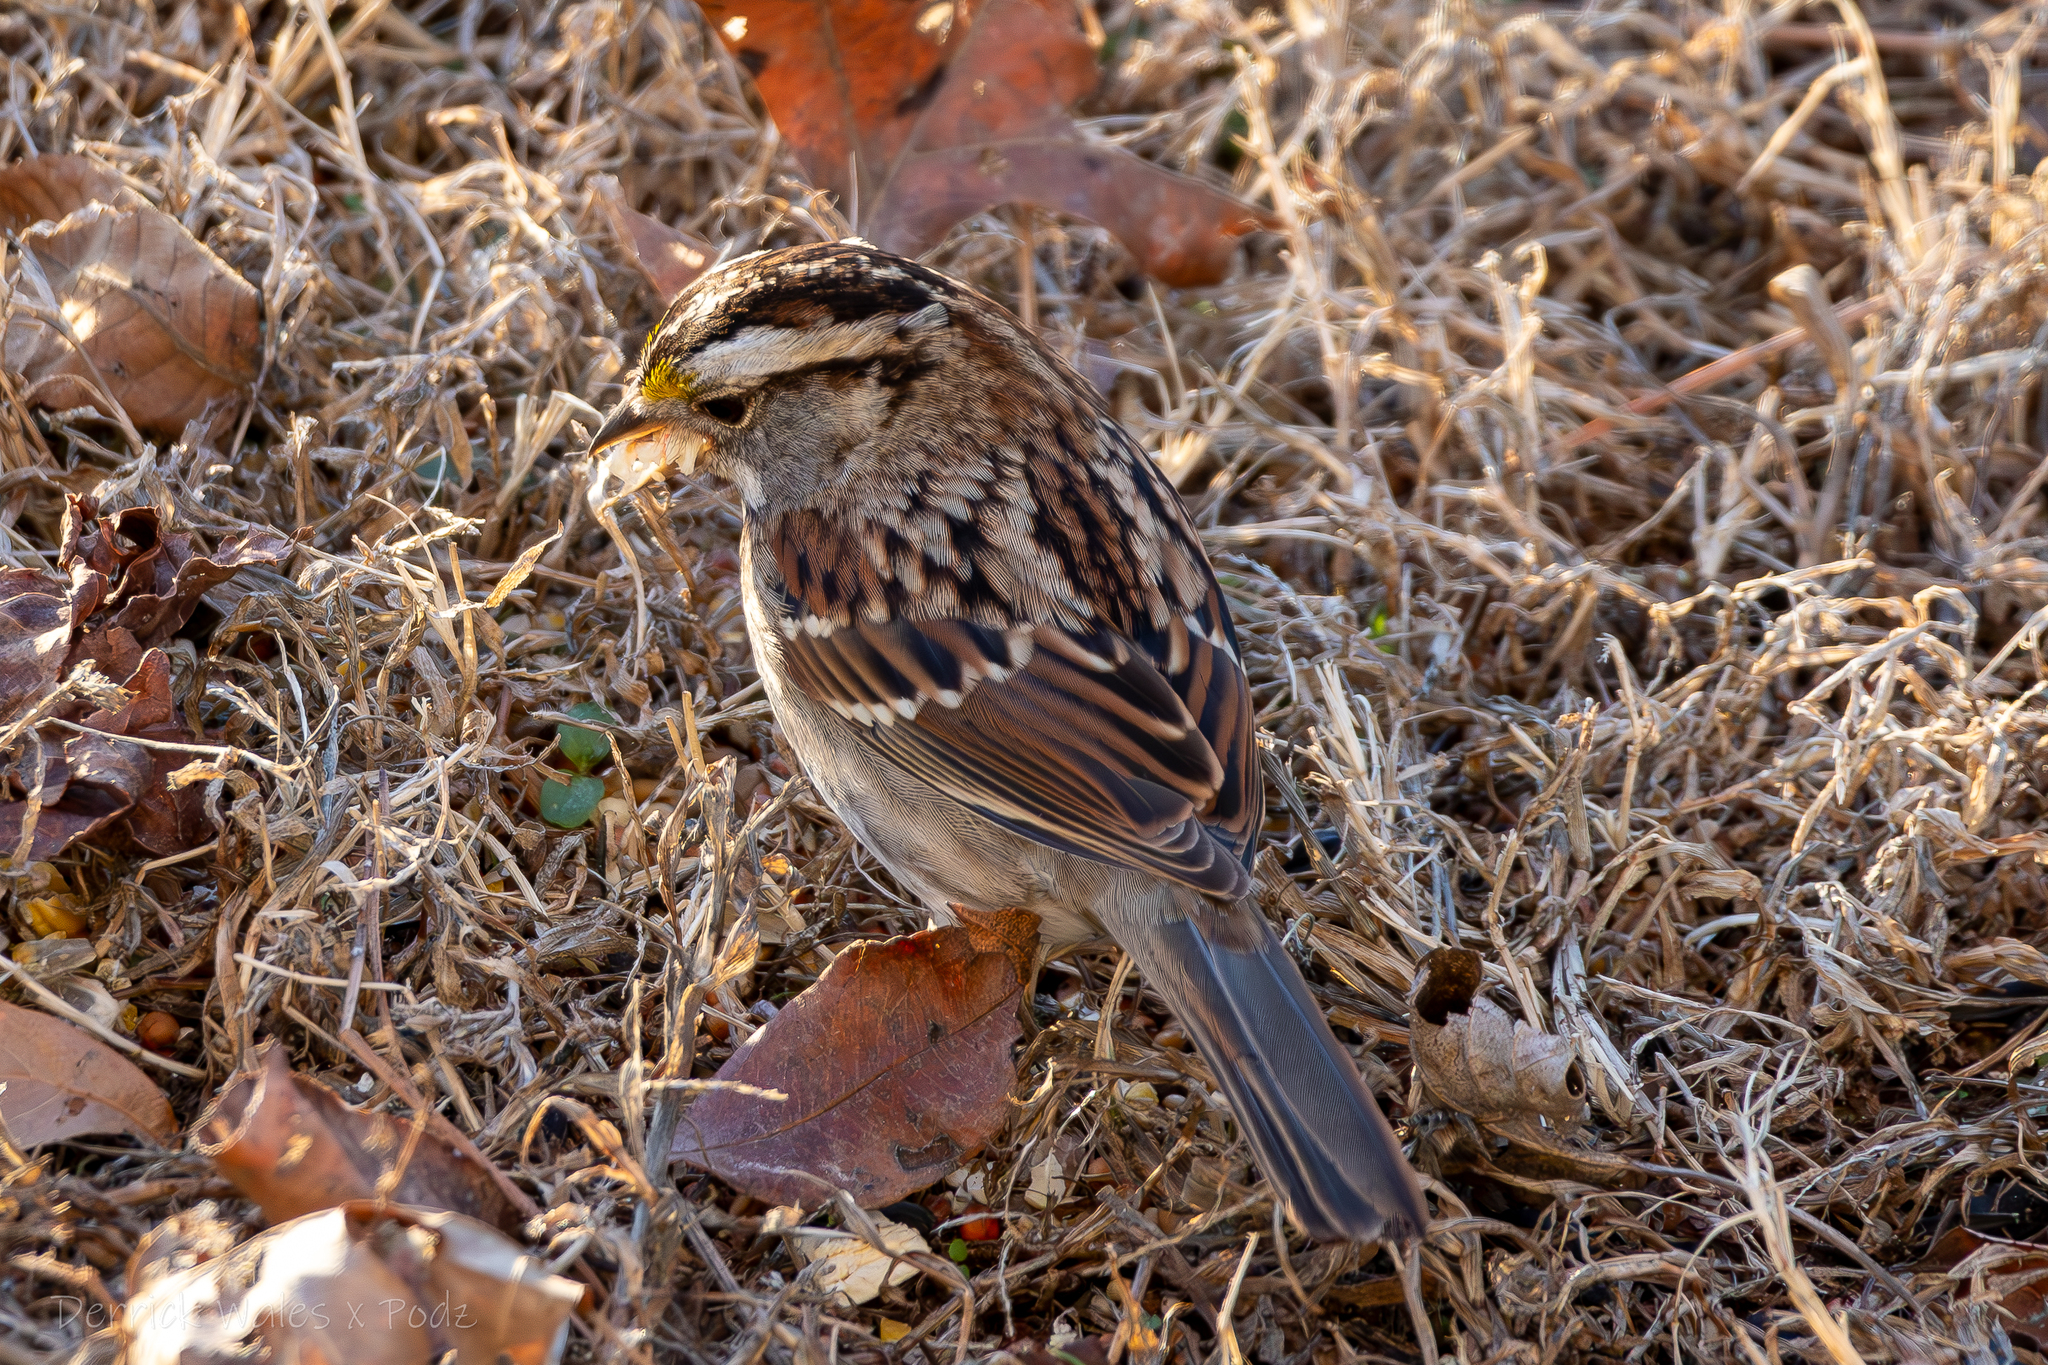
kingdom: Animalia
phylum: Chordata
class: Aves
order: Passeriformes
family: Passerellidae
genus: Zonotrichia
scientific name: Zonotrichia albicollis
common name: White-throated sparrow
